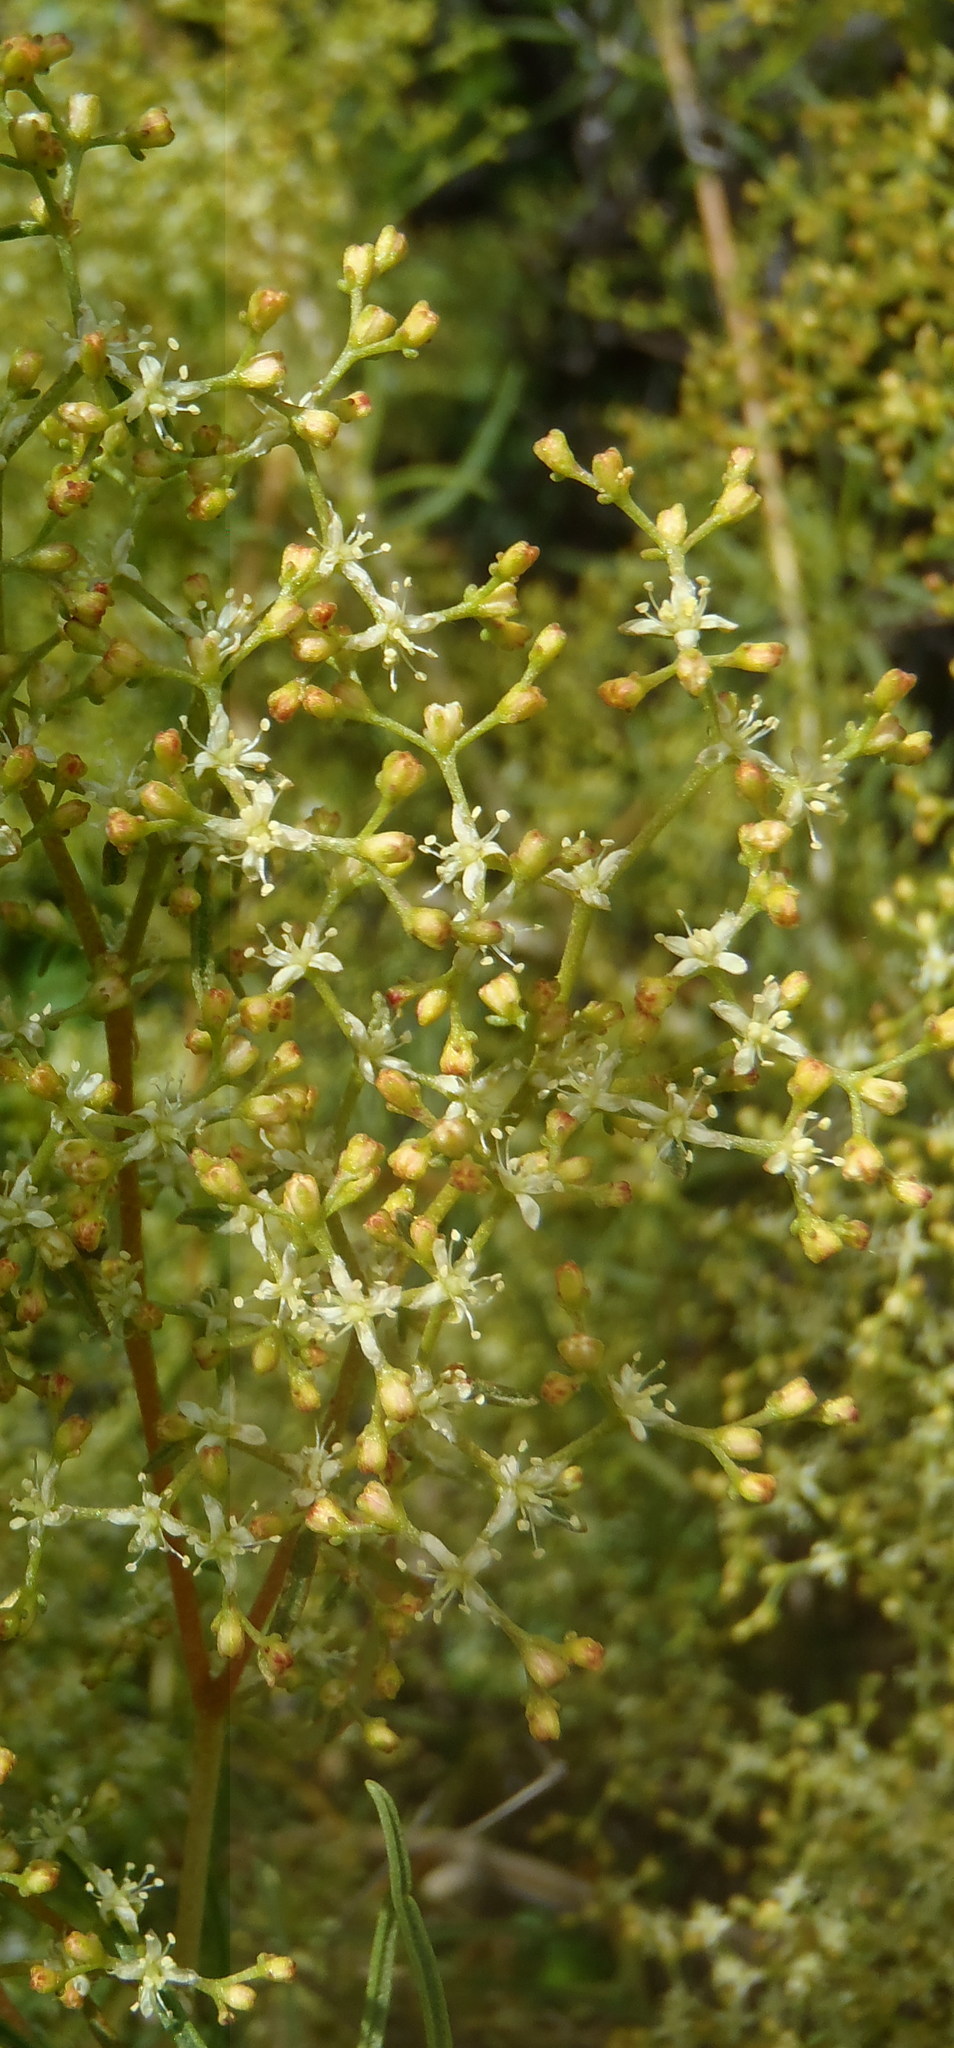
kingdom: Plantae
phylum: Tracheophyta
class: Magnoliopsida
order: Caryophyllales
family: Aizoaceae
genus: Aizoon
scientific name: Aizoon africanum
